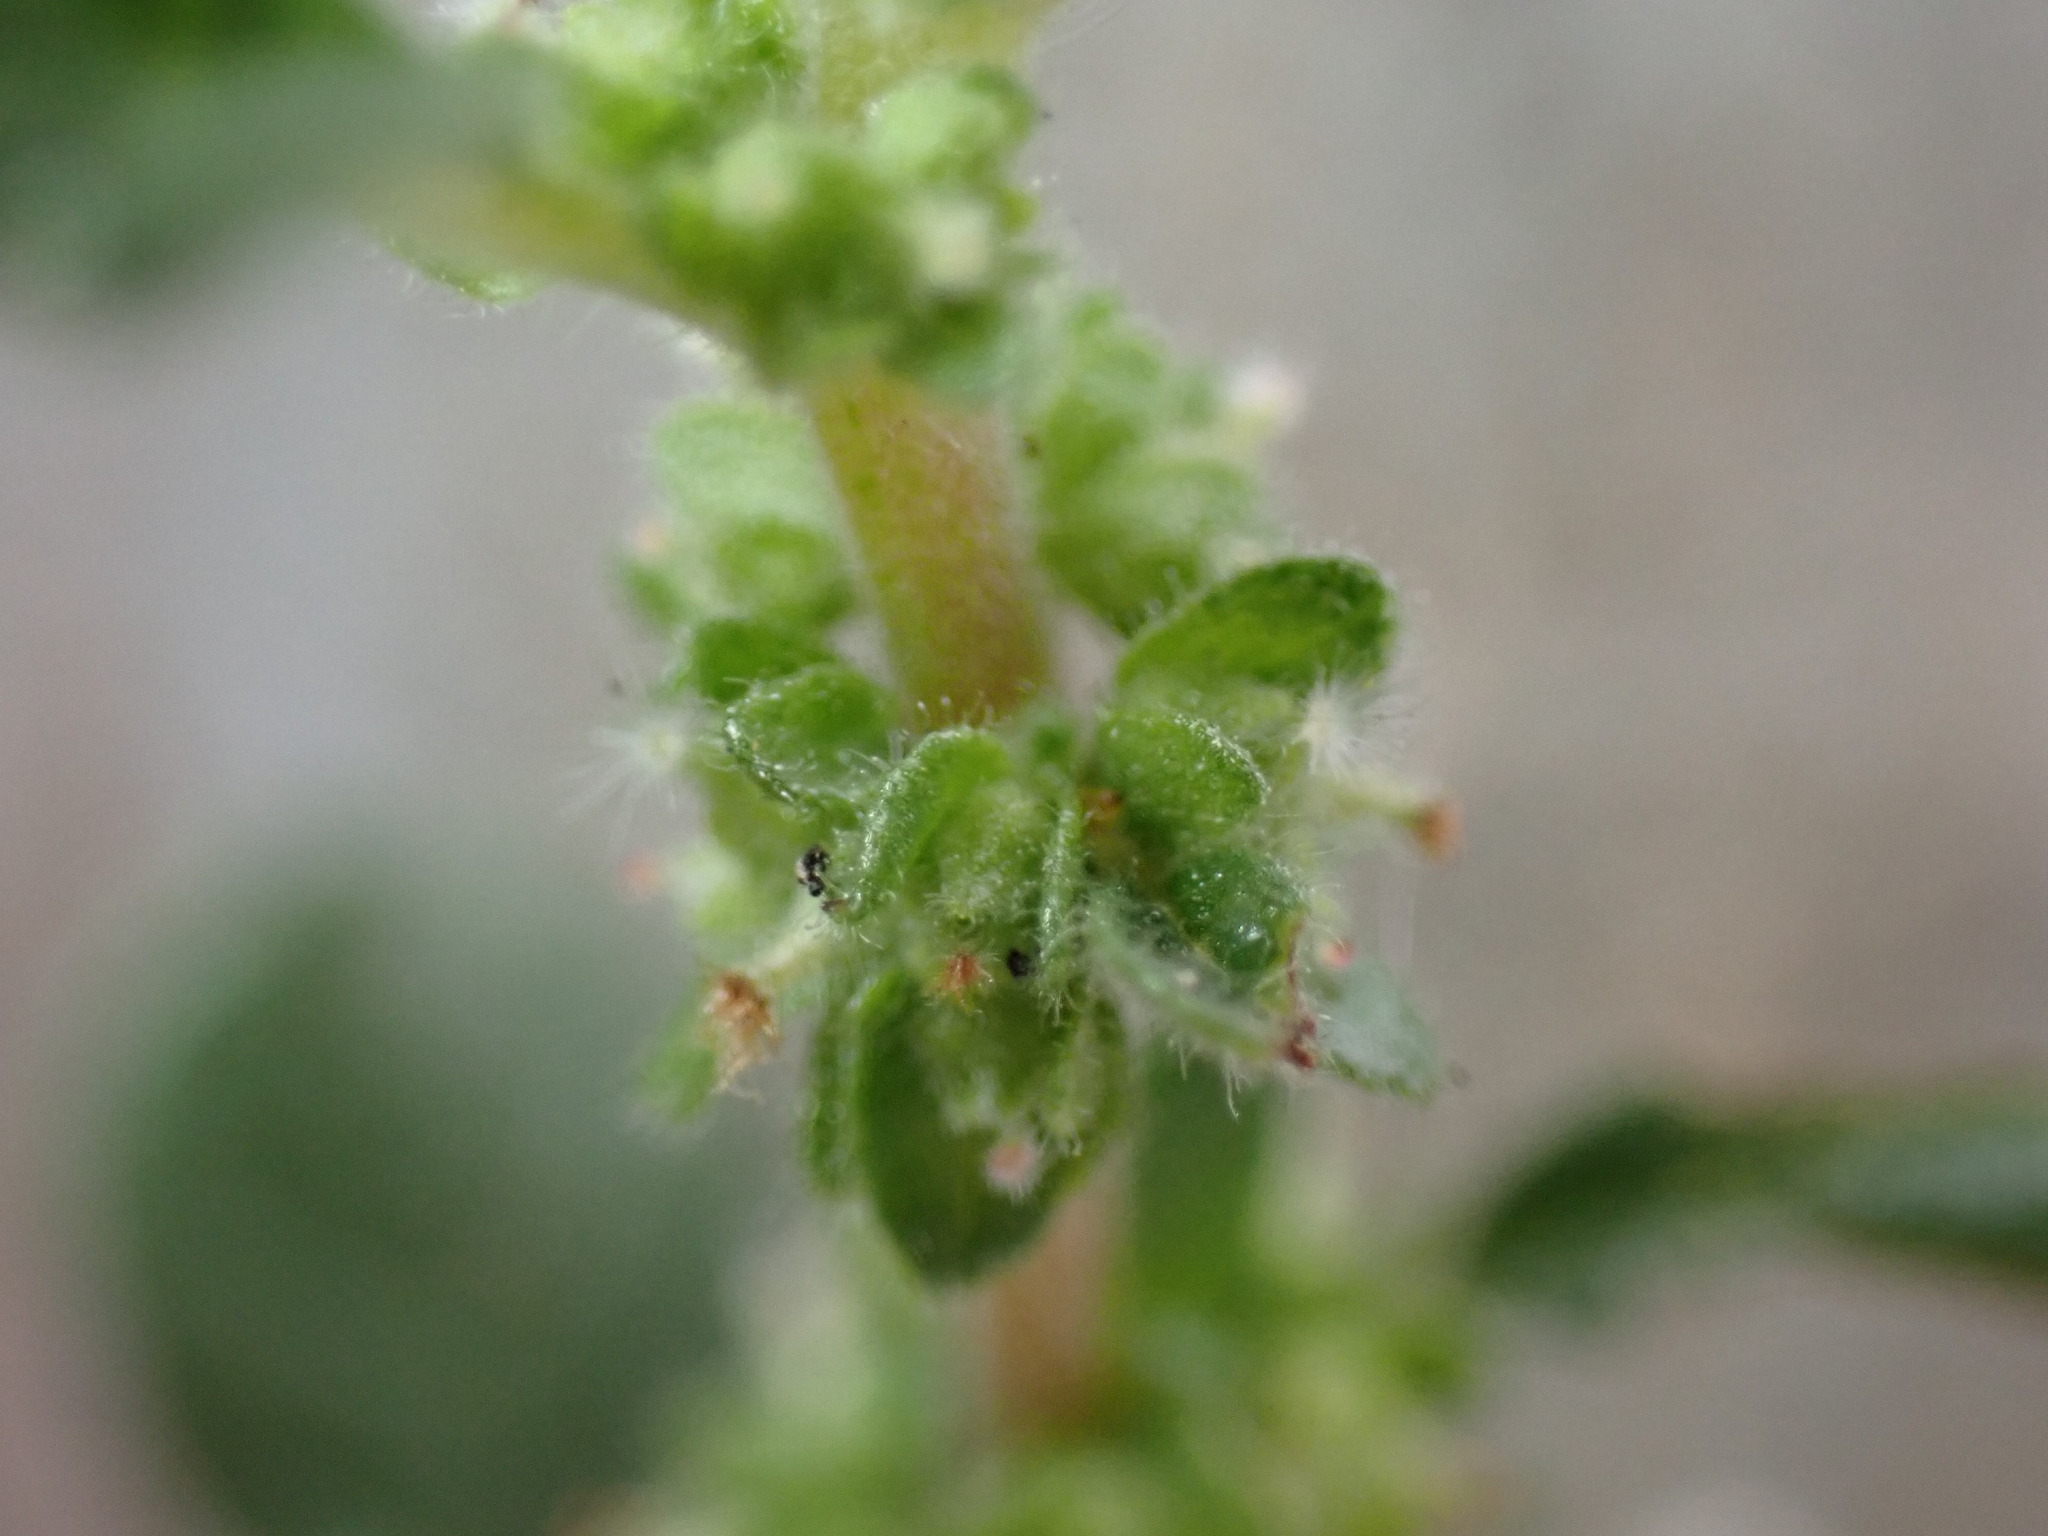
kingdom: Plantae
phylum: Tracheophyta
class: Magnoliopsida
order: Rosales
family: Urticaceae
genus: Parietaria
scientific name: Parietaria judaica
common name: Pellitory-of-the-wall
